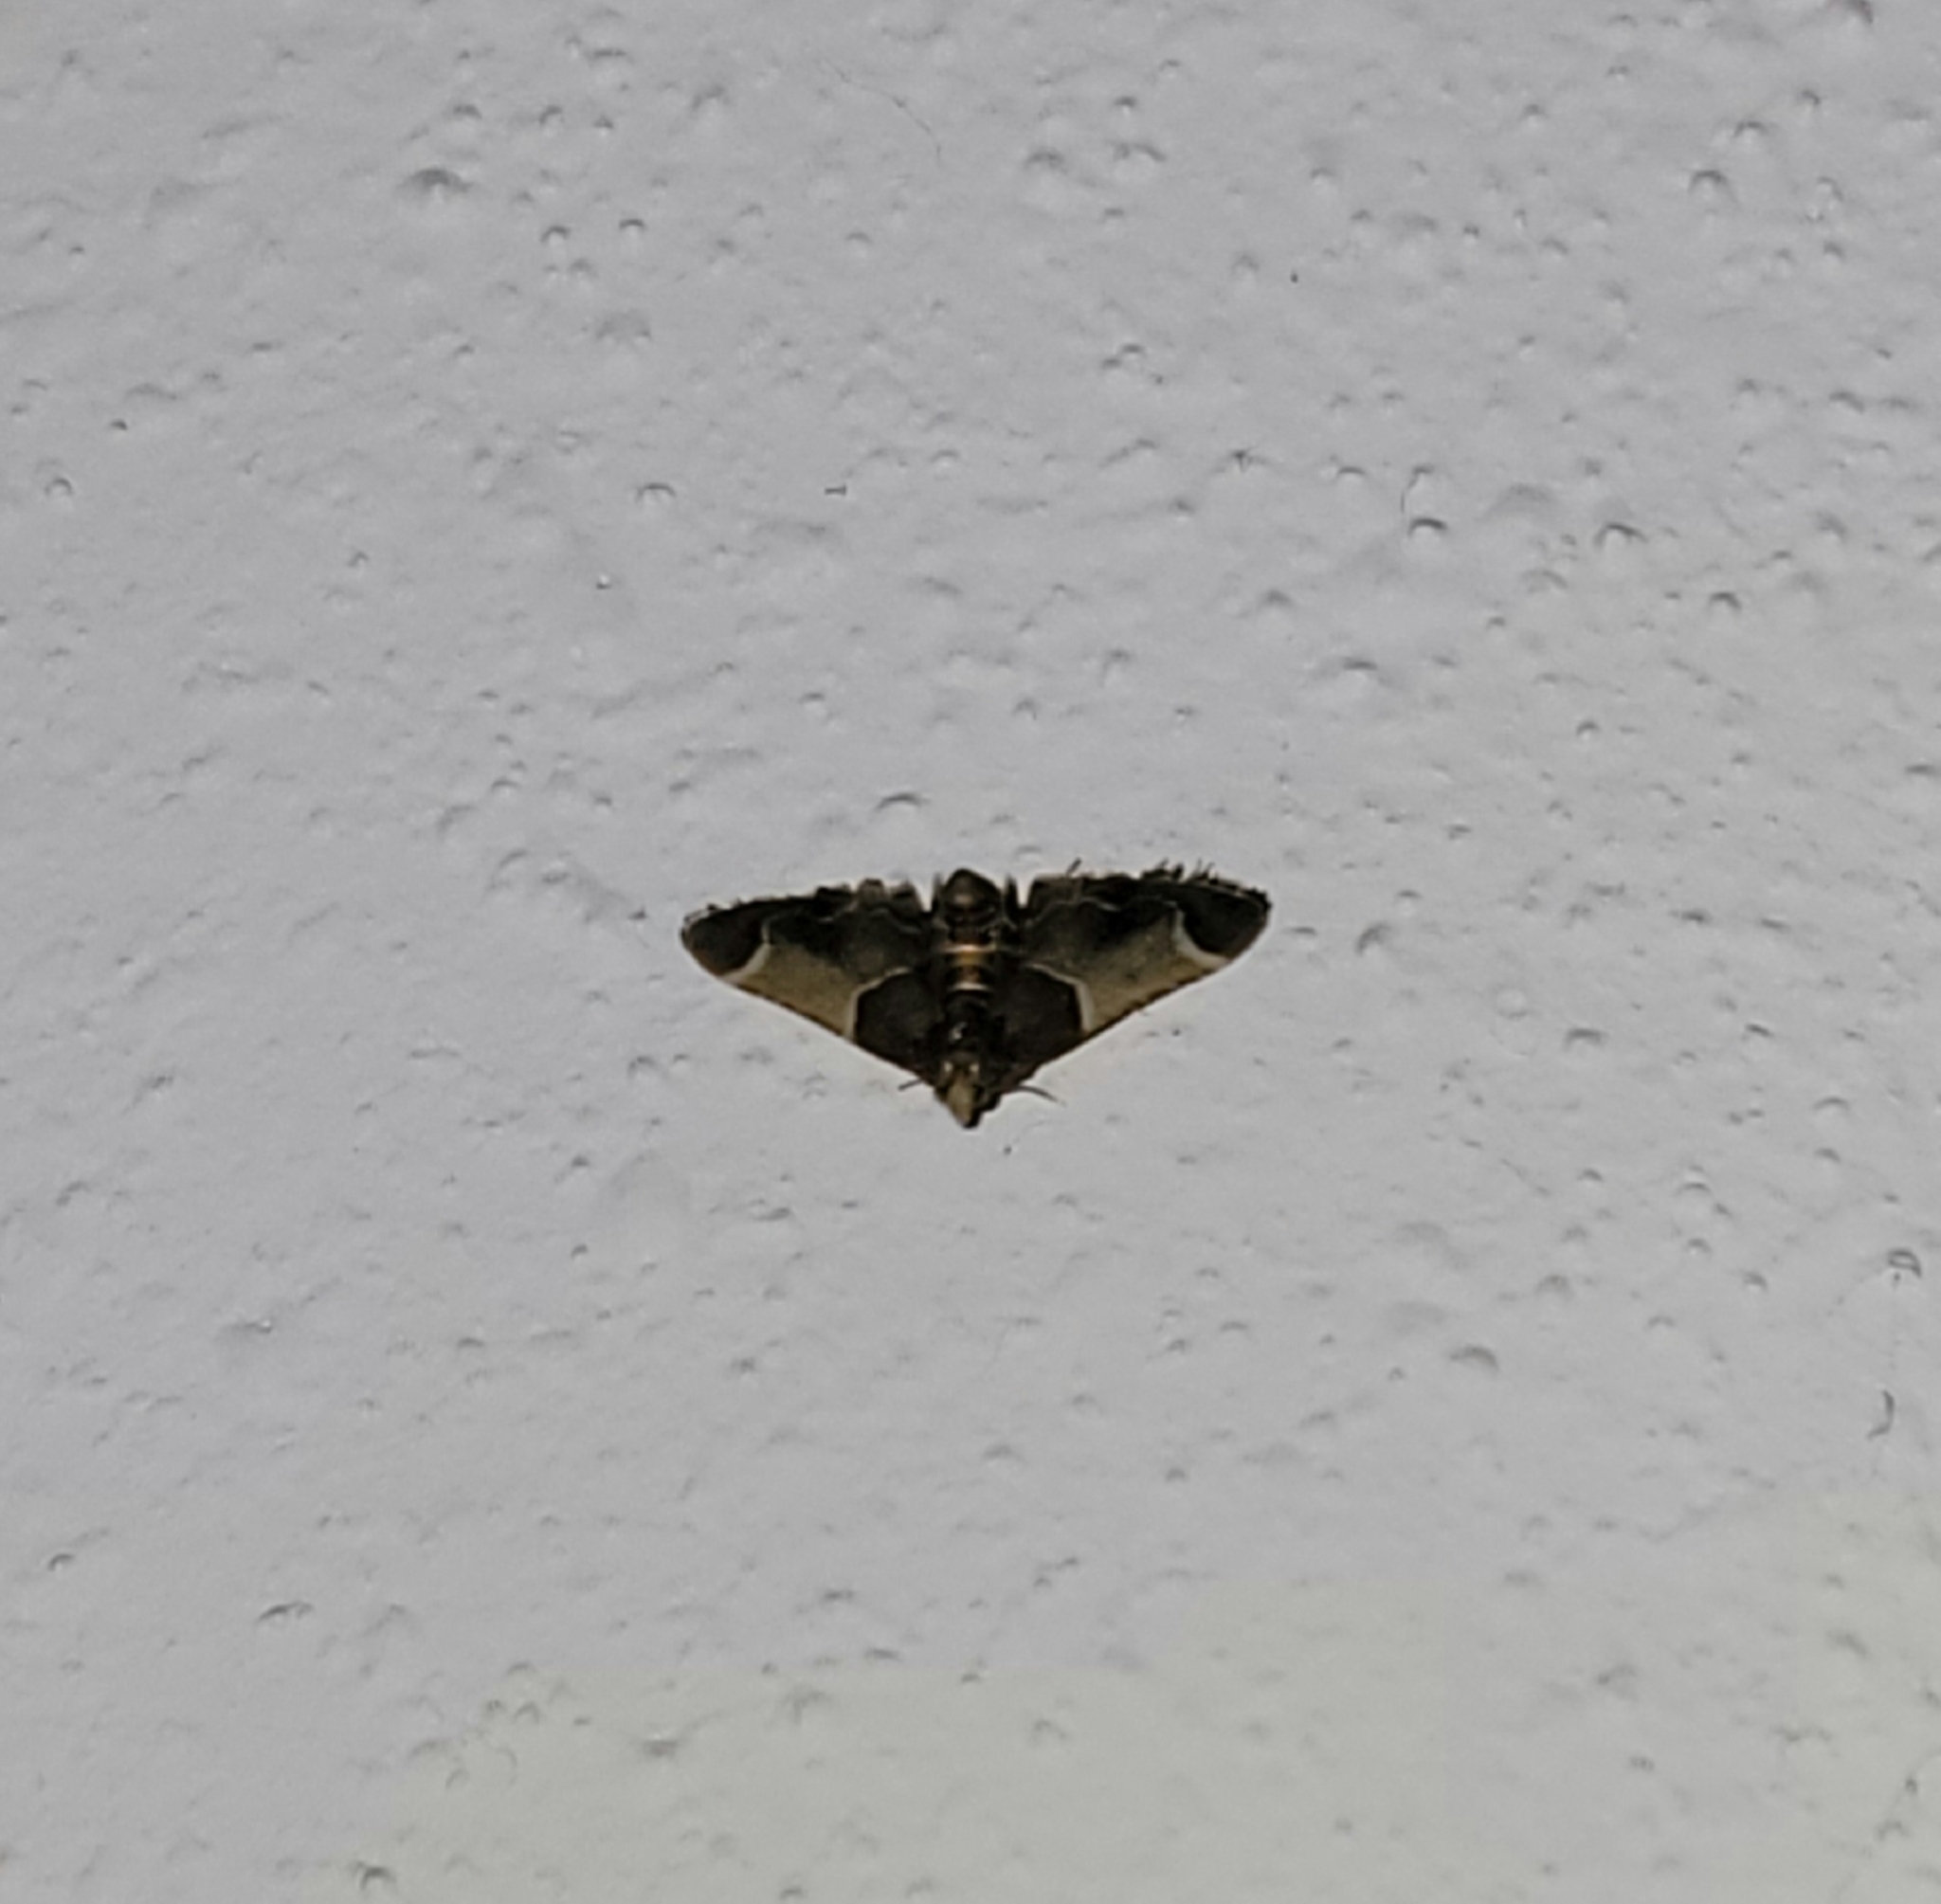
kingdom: Animalia
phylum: Arthropoda
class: Insecta
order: Lepidoptera
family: Pyralidae
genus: Pyralis
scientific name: Pyralis farinalis
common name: Meal moth
